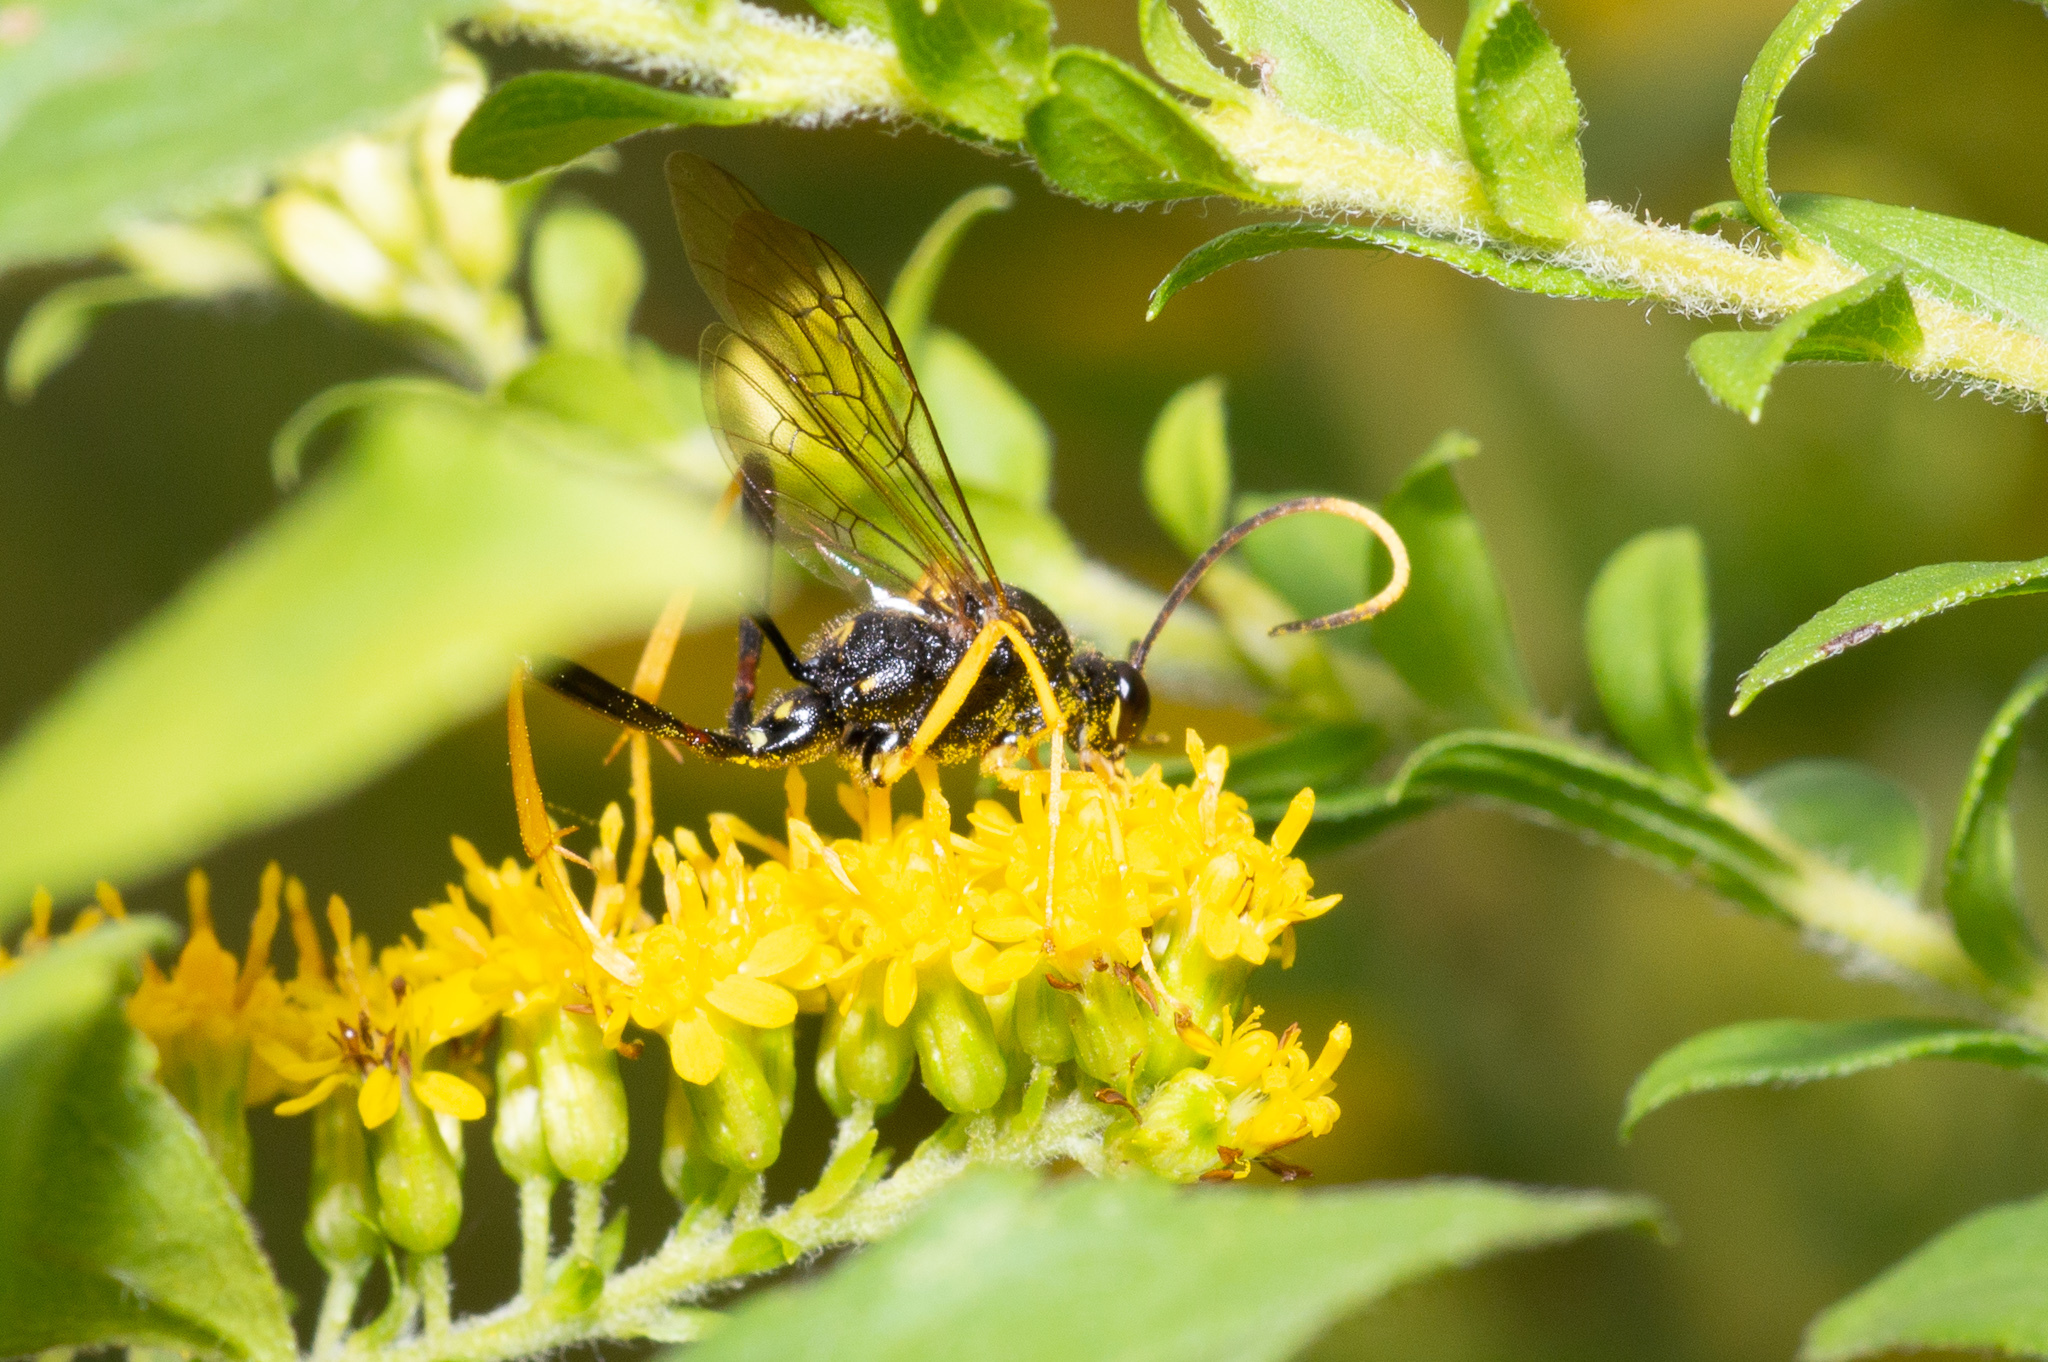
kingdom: Animalia
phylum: Arthropoda
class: Insecta
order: Hymenoptera
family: Ichneumonidae
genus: Acroricnus
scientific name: Acroricnus stylator
